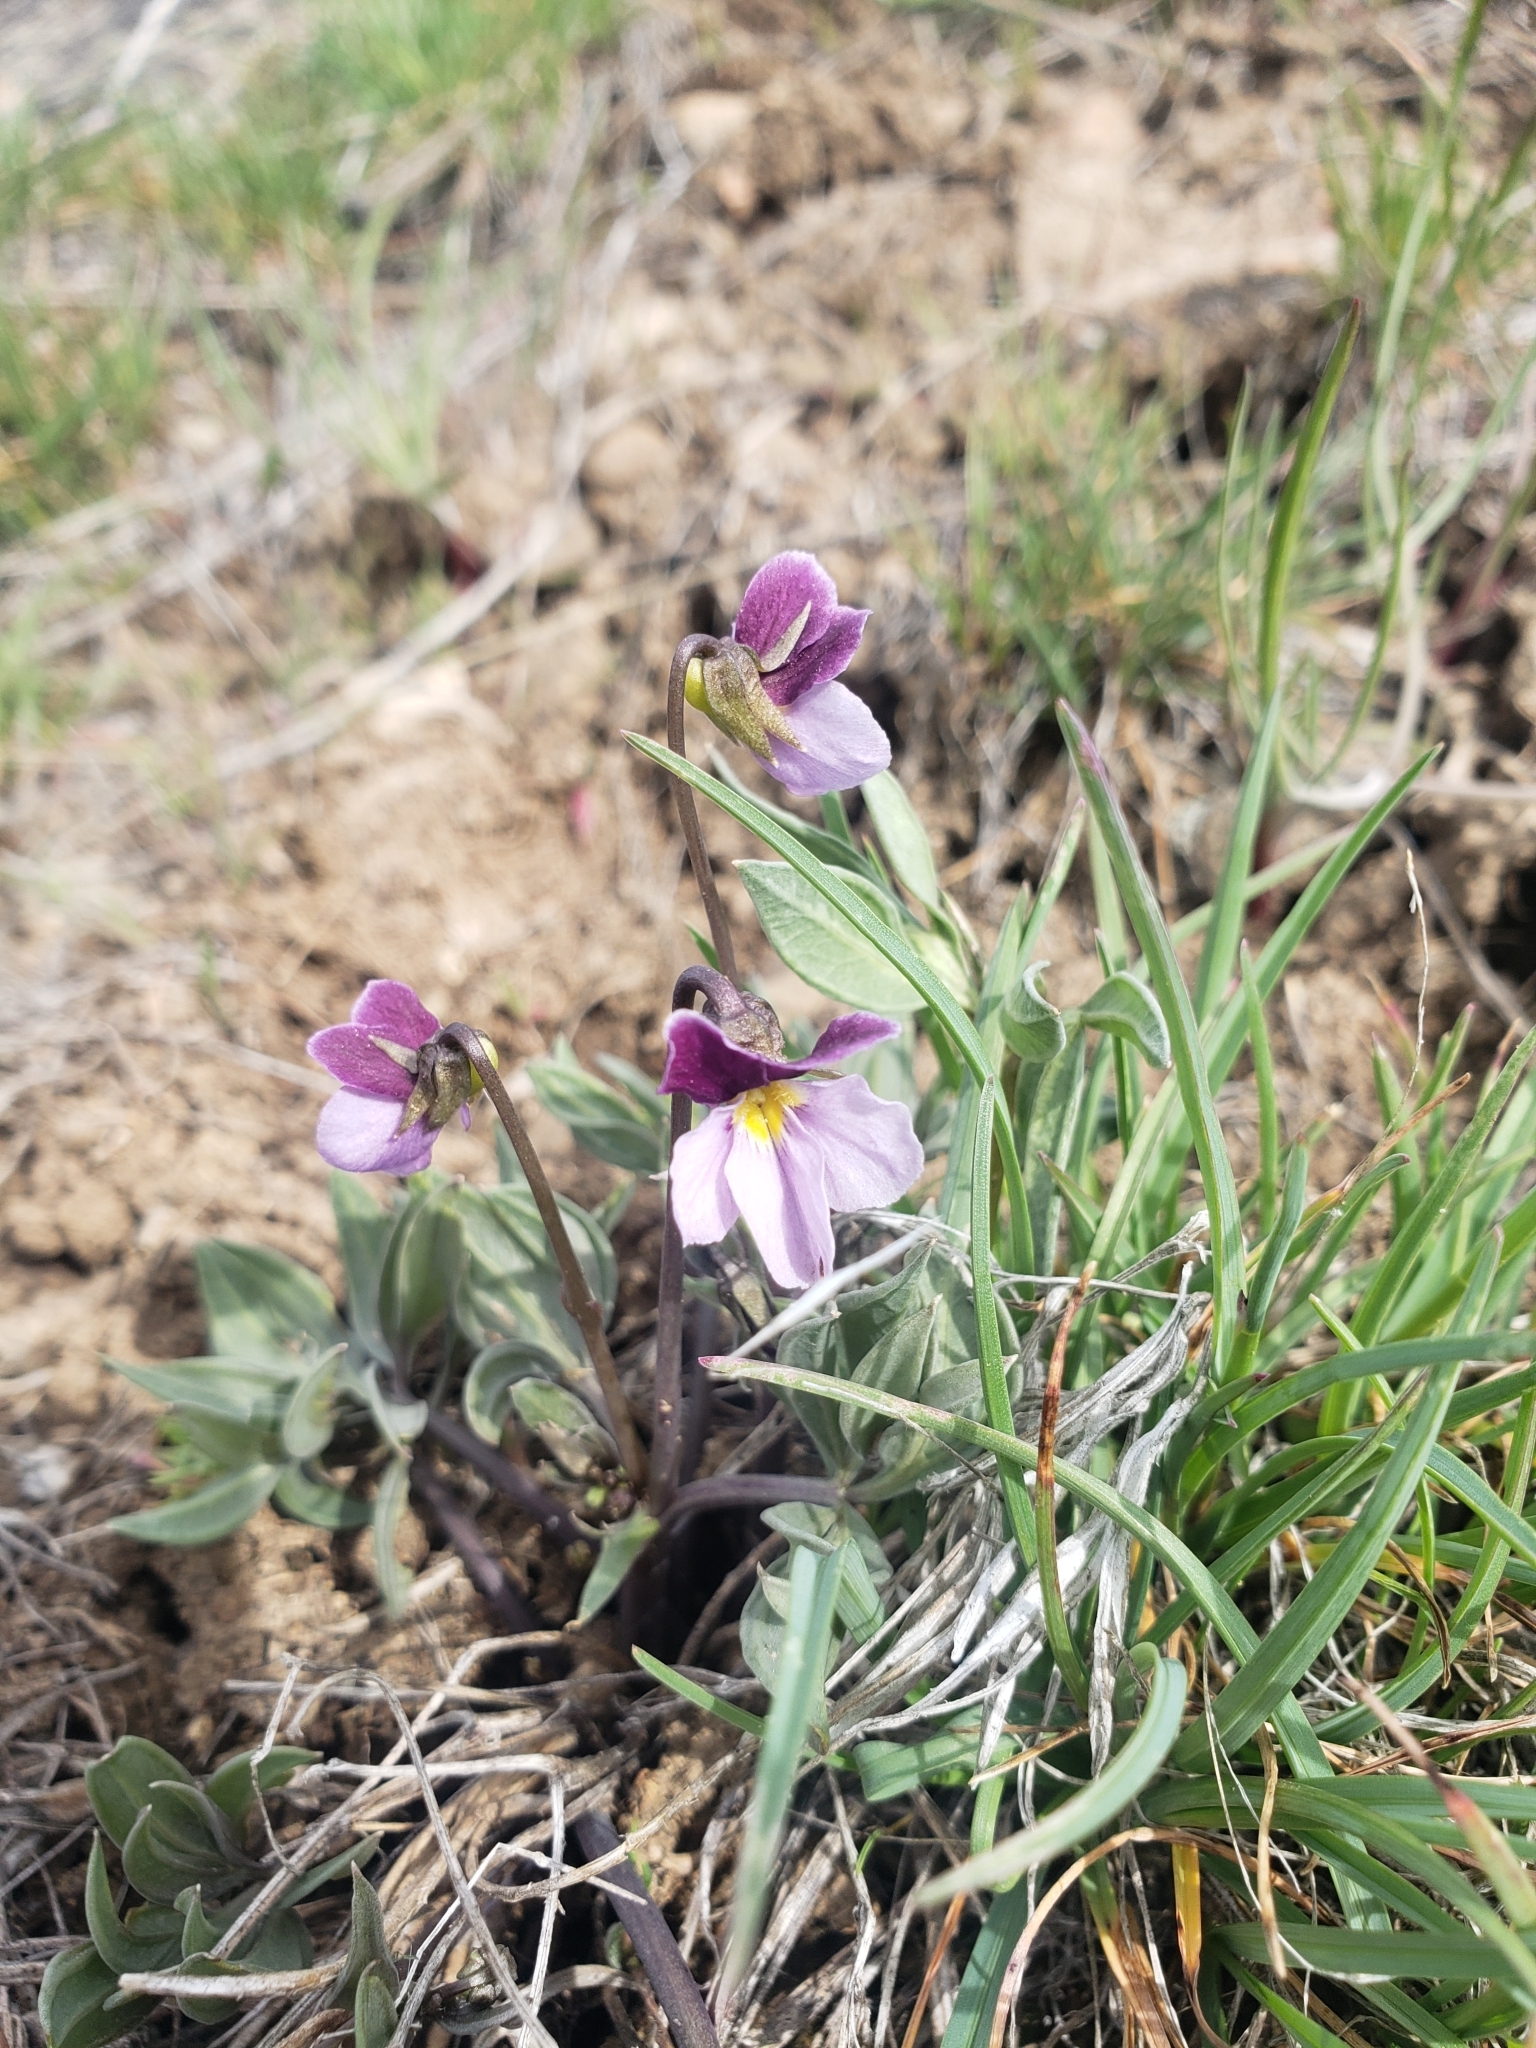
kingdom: Plantae
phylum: Tracheophyta
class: Magnoliopsida
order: Malpighiales
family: Violaceae
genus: Viola
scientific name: Viola trinervata
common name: Sagebrush violet
